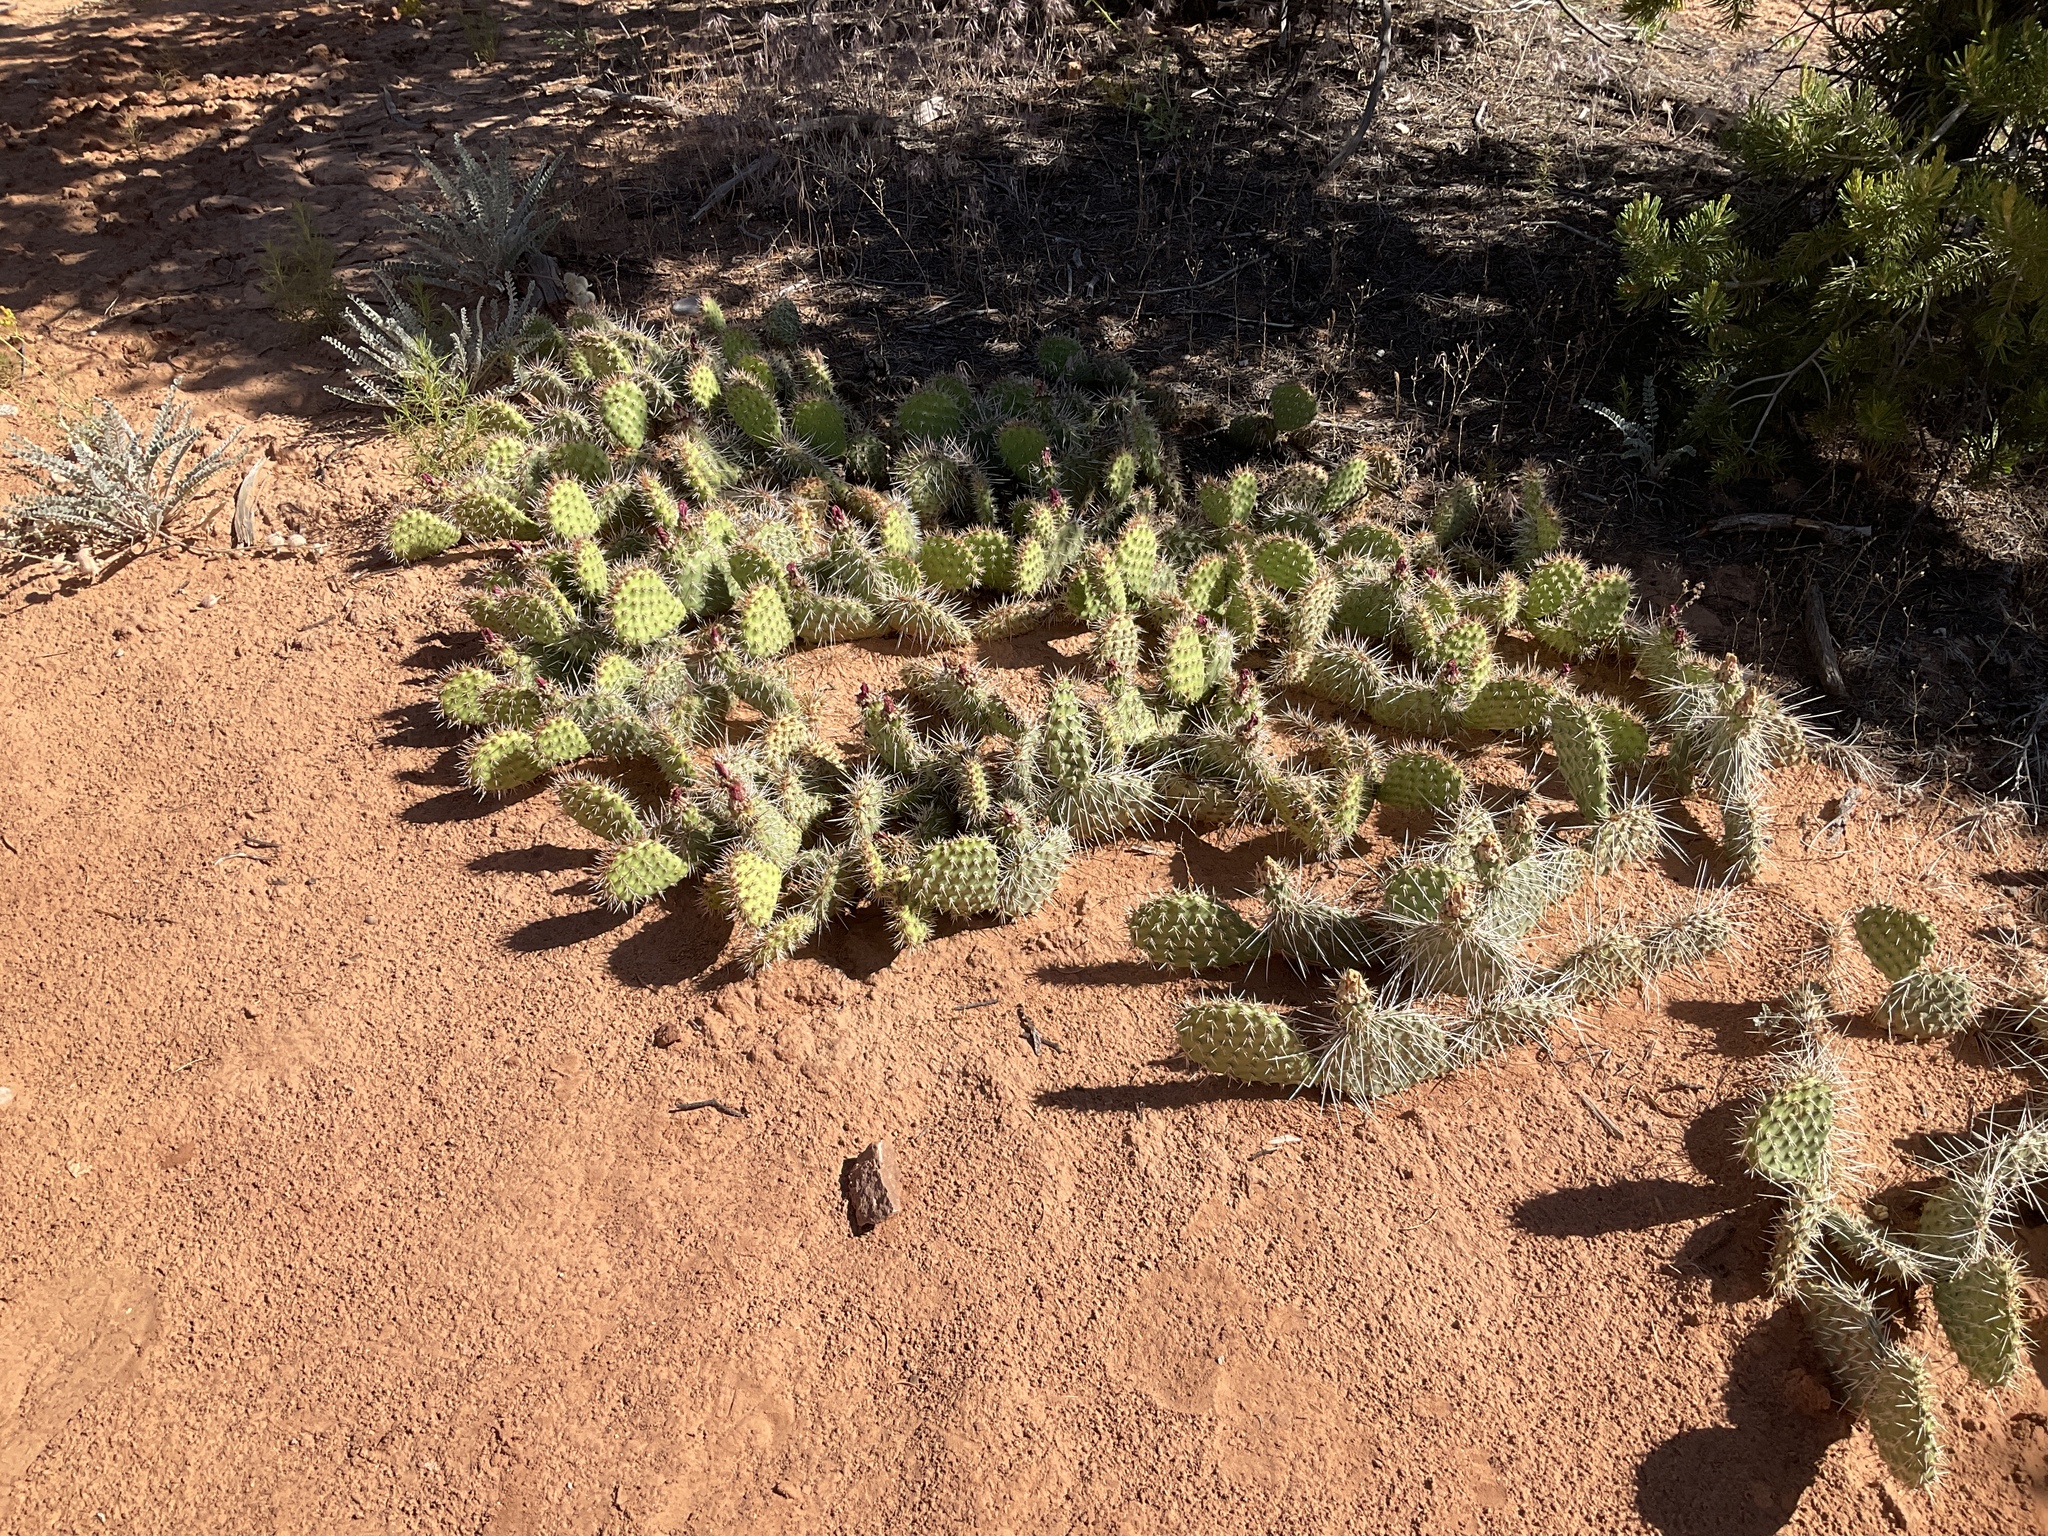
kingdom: Plantae
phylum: Tracheophyta
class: Magnoliopsida
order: Caryophyllales
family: Cactaceae
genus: Opuntia
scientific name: Opuntia polyacantha
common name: Plains prickly-pear
